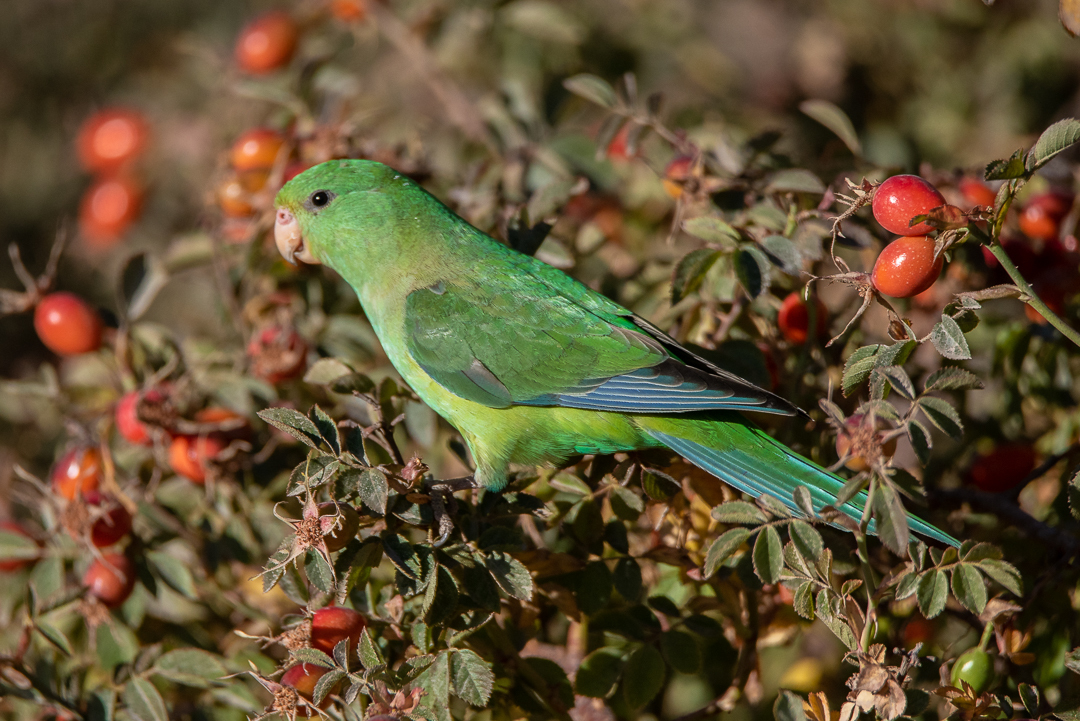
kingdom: Animalia
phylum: Chordata
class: Aves
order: Psittaciformes
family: Psittacidae
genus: Psilopsiagon
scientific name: Psilopsiagon aurifrons
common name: Mountain parakeet
